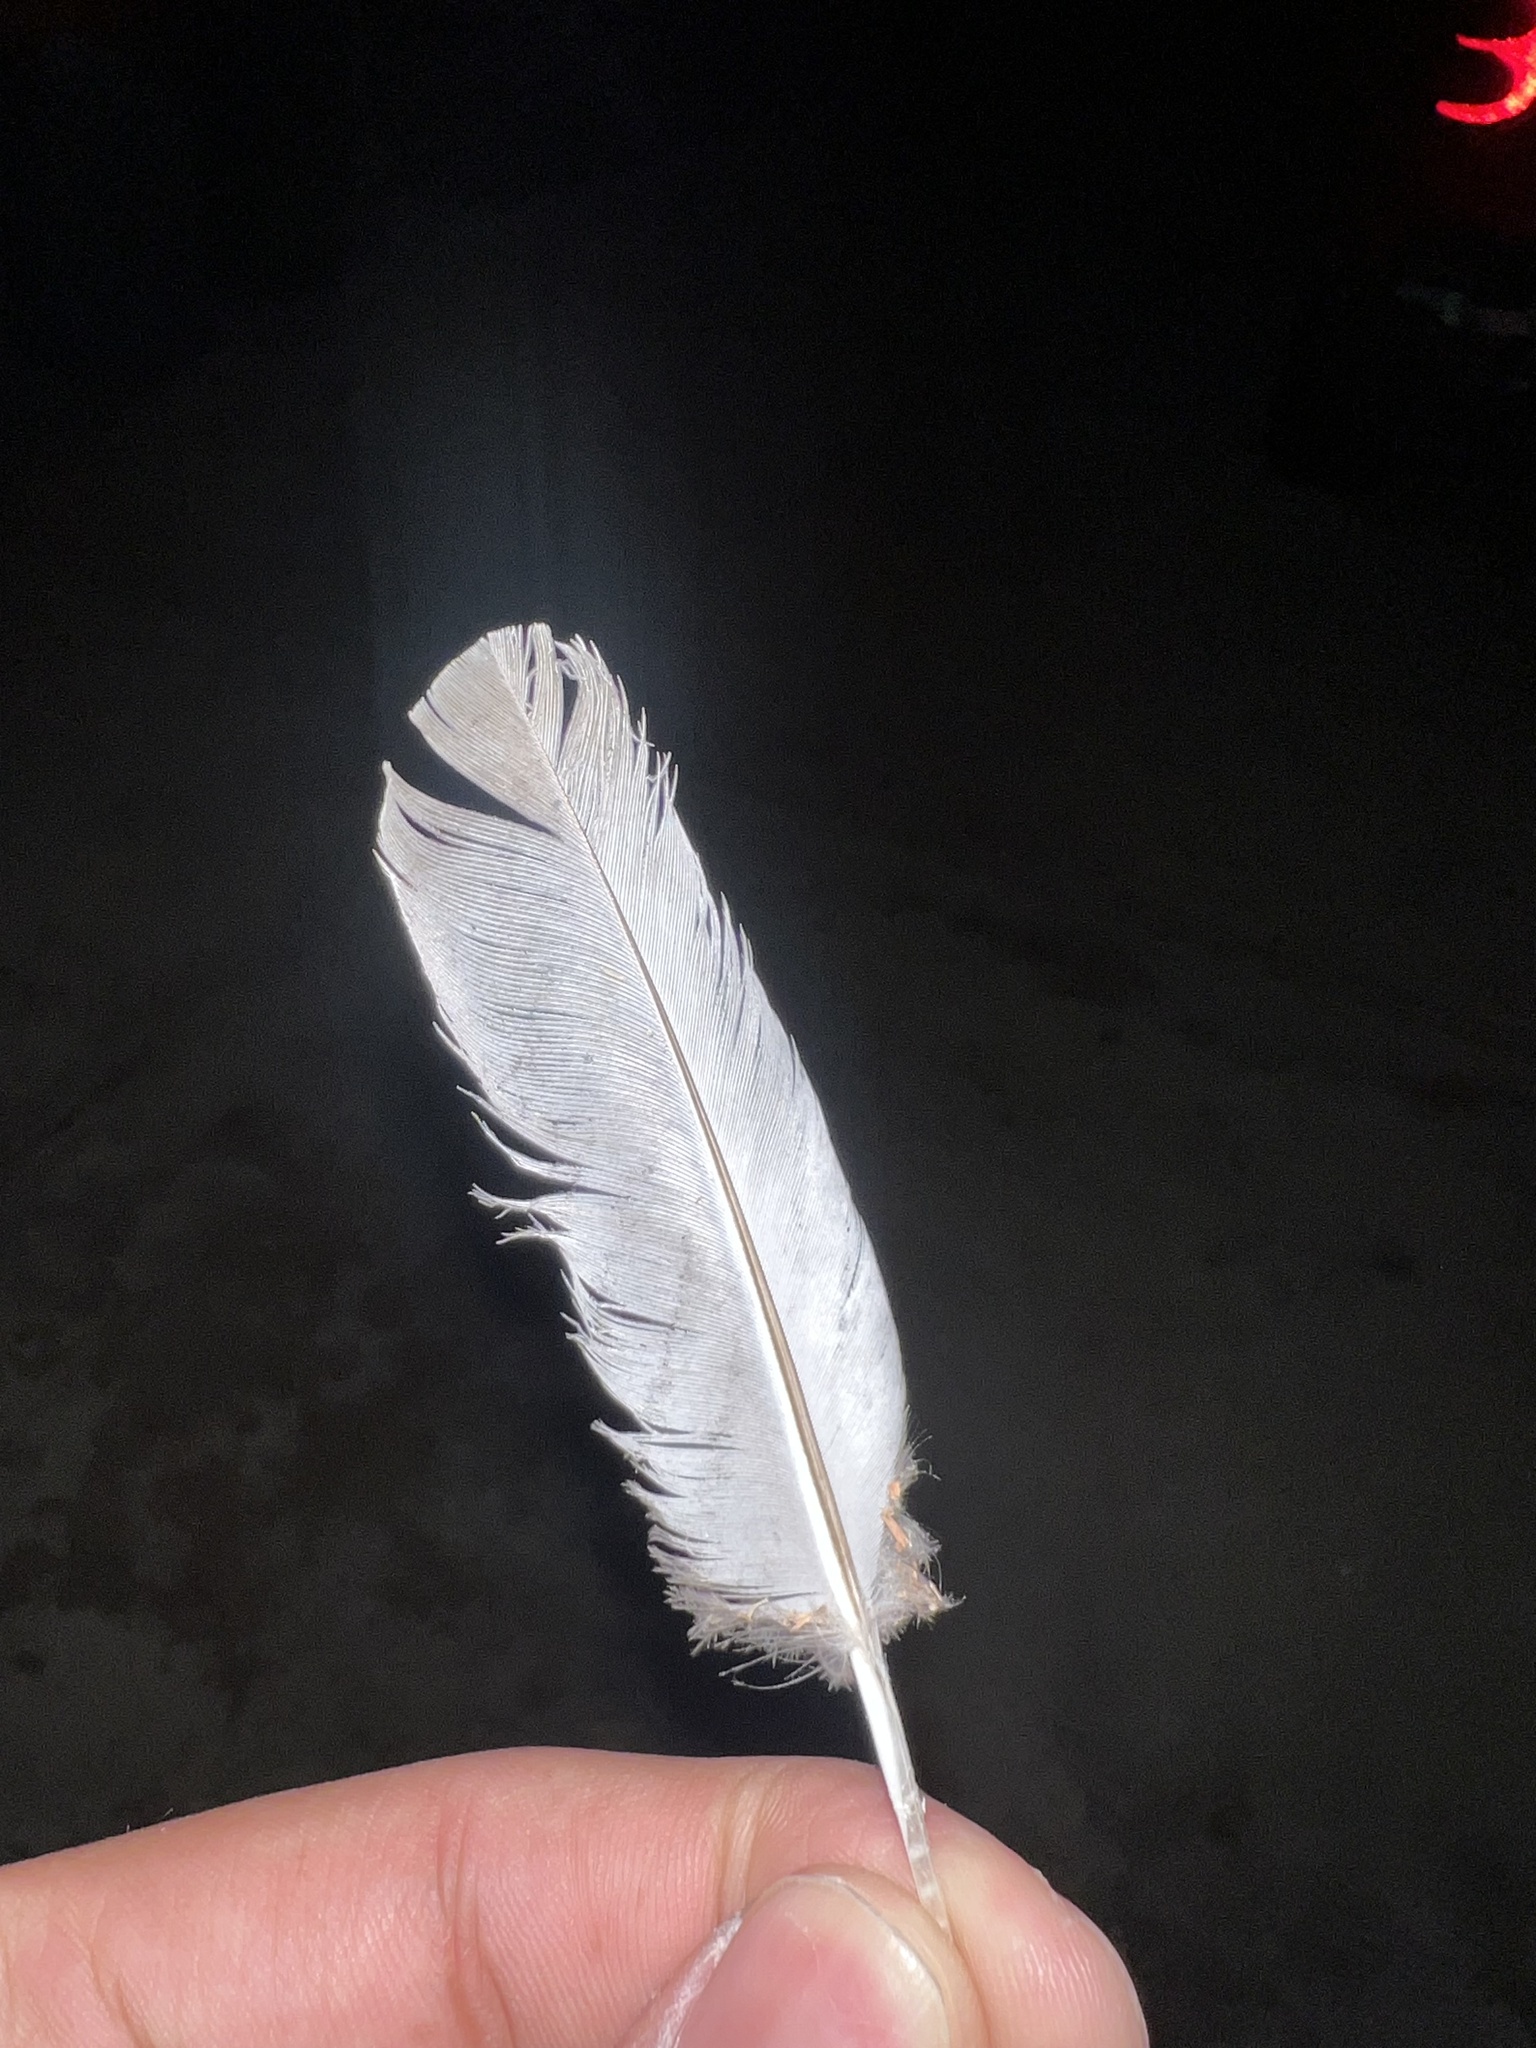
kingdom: Animalia
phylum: Chordata
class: Aves
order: Columbiformes
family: Columbidae
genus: Zenaida
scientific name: Zenaida macroura
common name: Mourning dove
